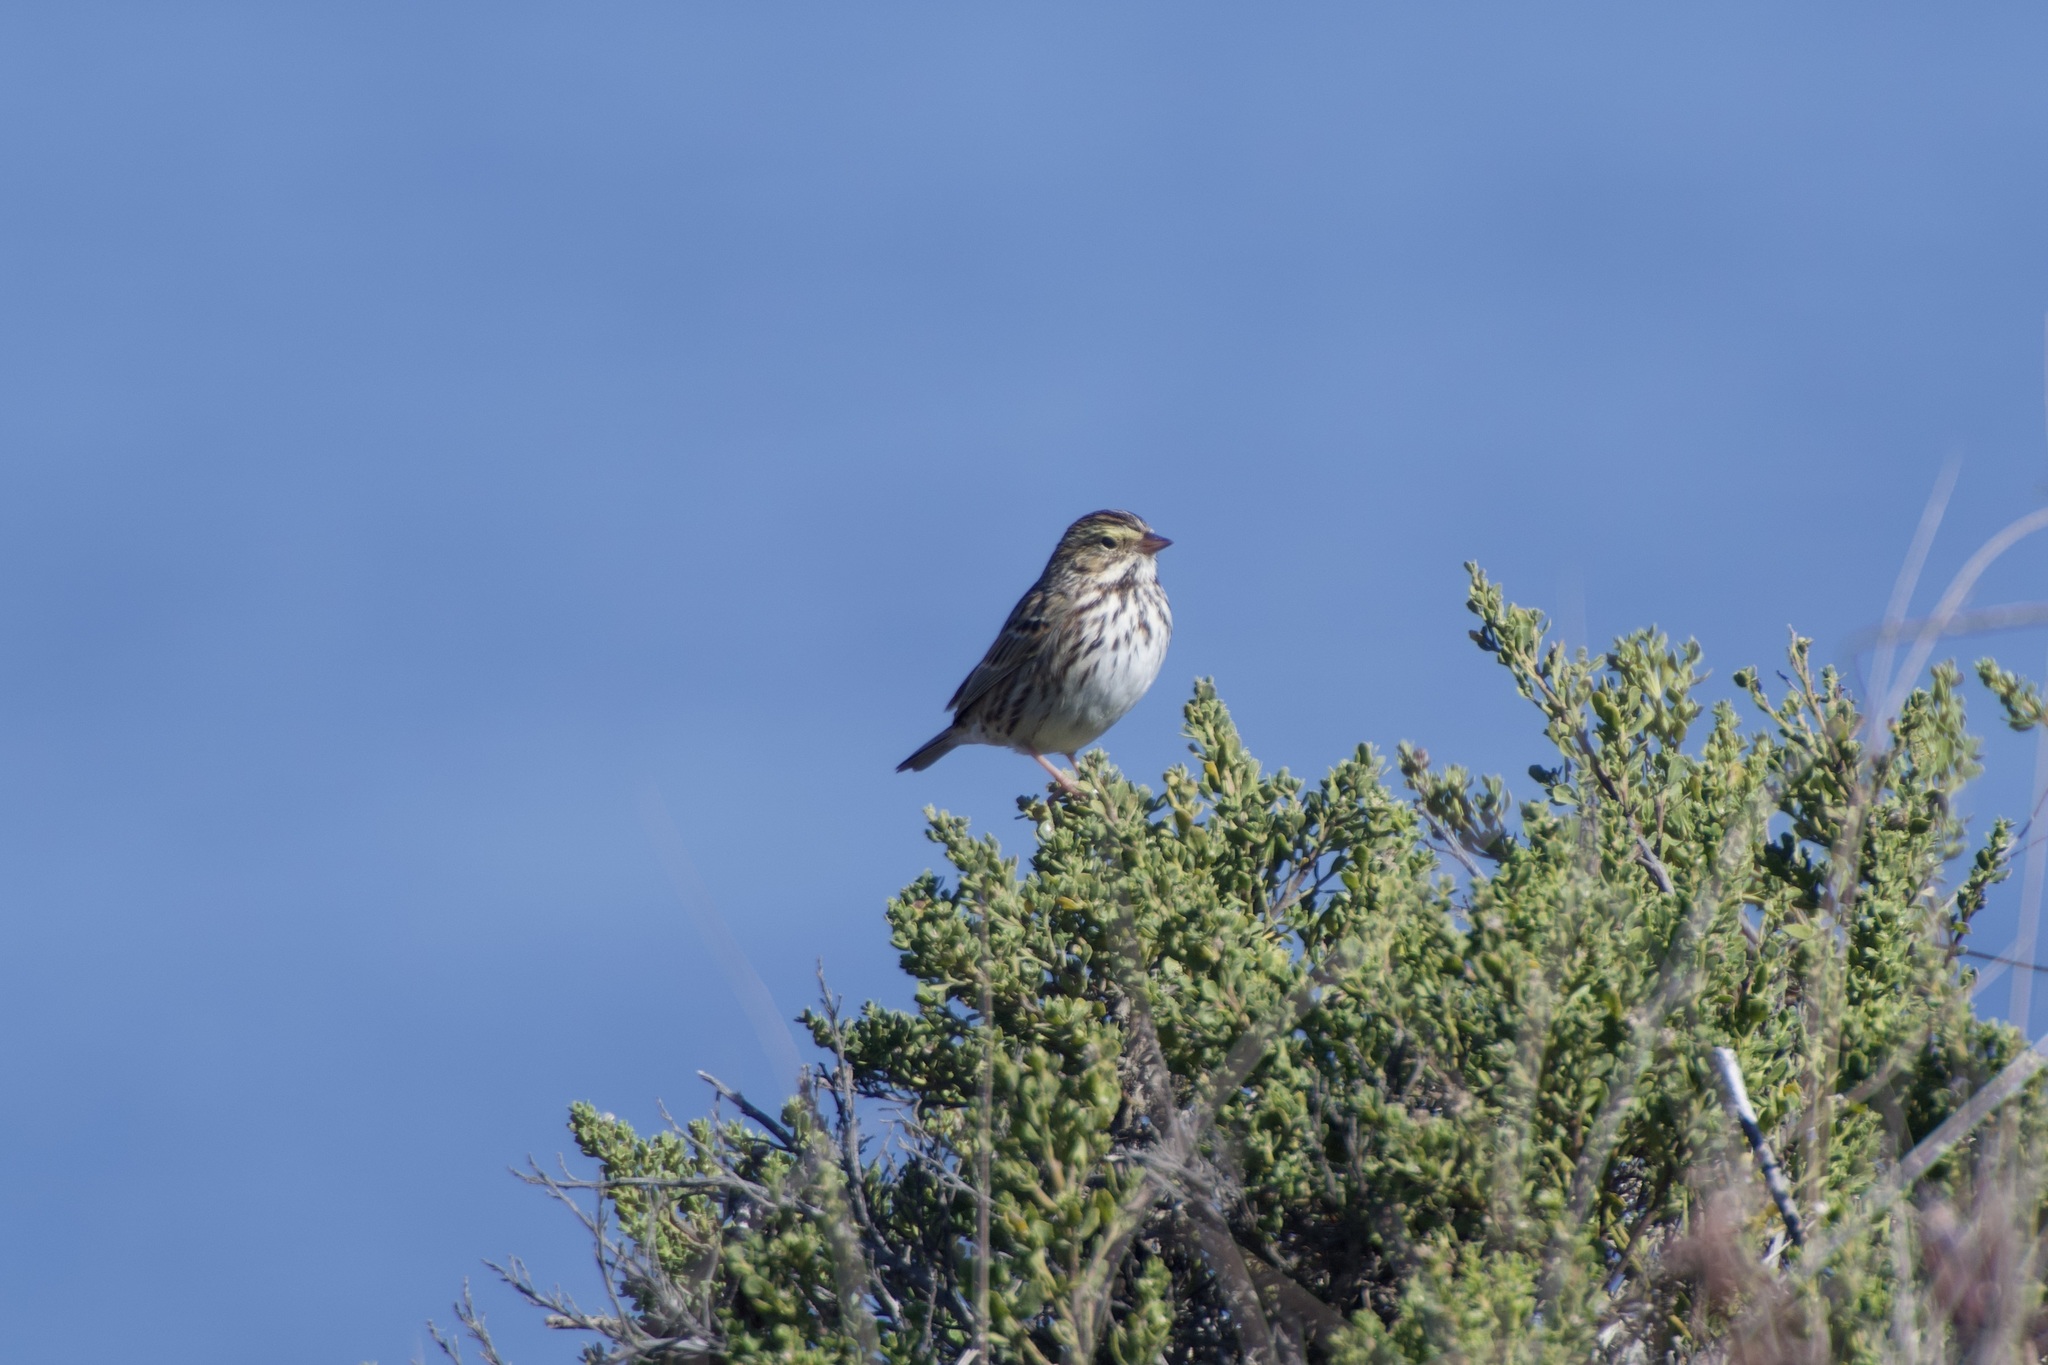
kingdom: Animalia
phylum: Chordata
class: Aves
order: Passeriformes
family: Passerellidae
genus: Passerculus
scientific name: Passerculus sandwichensis
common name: Savannah sparrow
